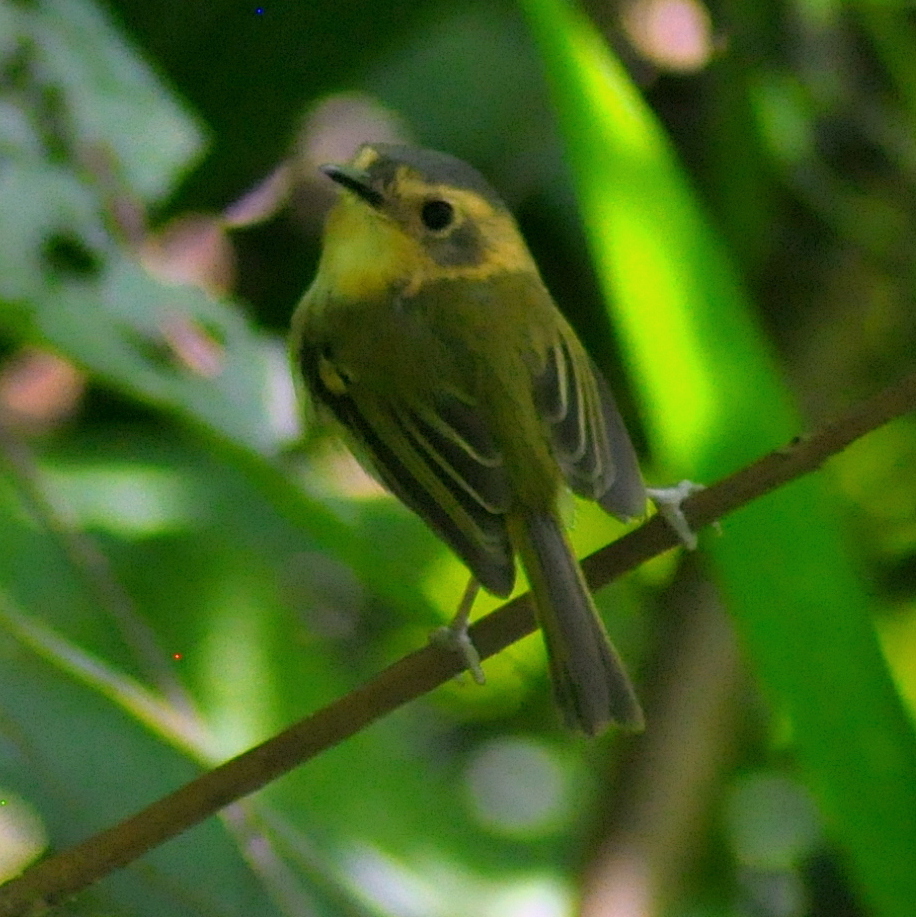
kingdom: Animalia
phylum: Chordata
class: Aves
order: Passeriformes
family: Tyrannidae
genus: Poecilotriccus
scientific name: Poecilotriccus plumbeiceps
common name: Ochre-faced tody-flycatcher
